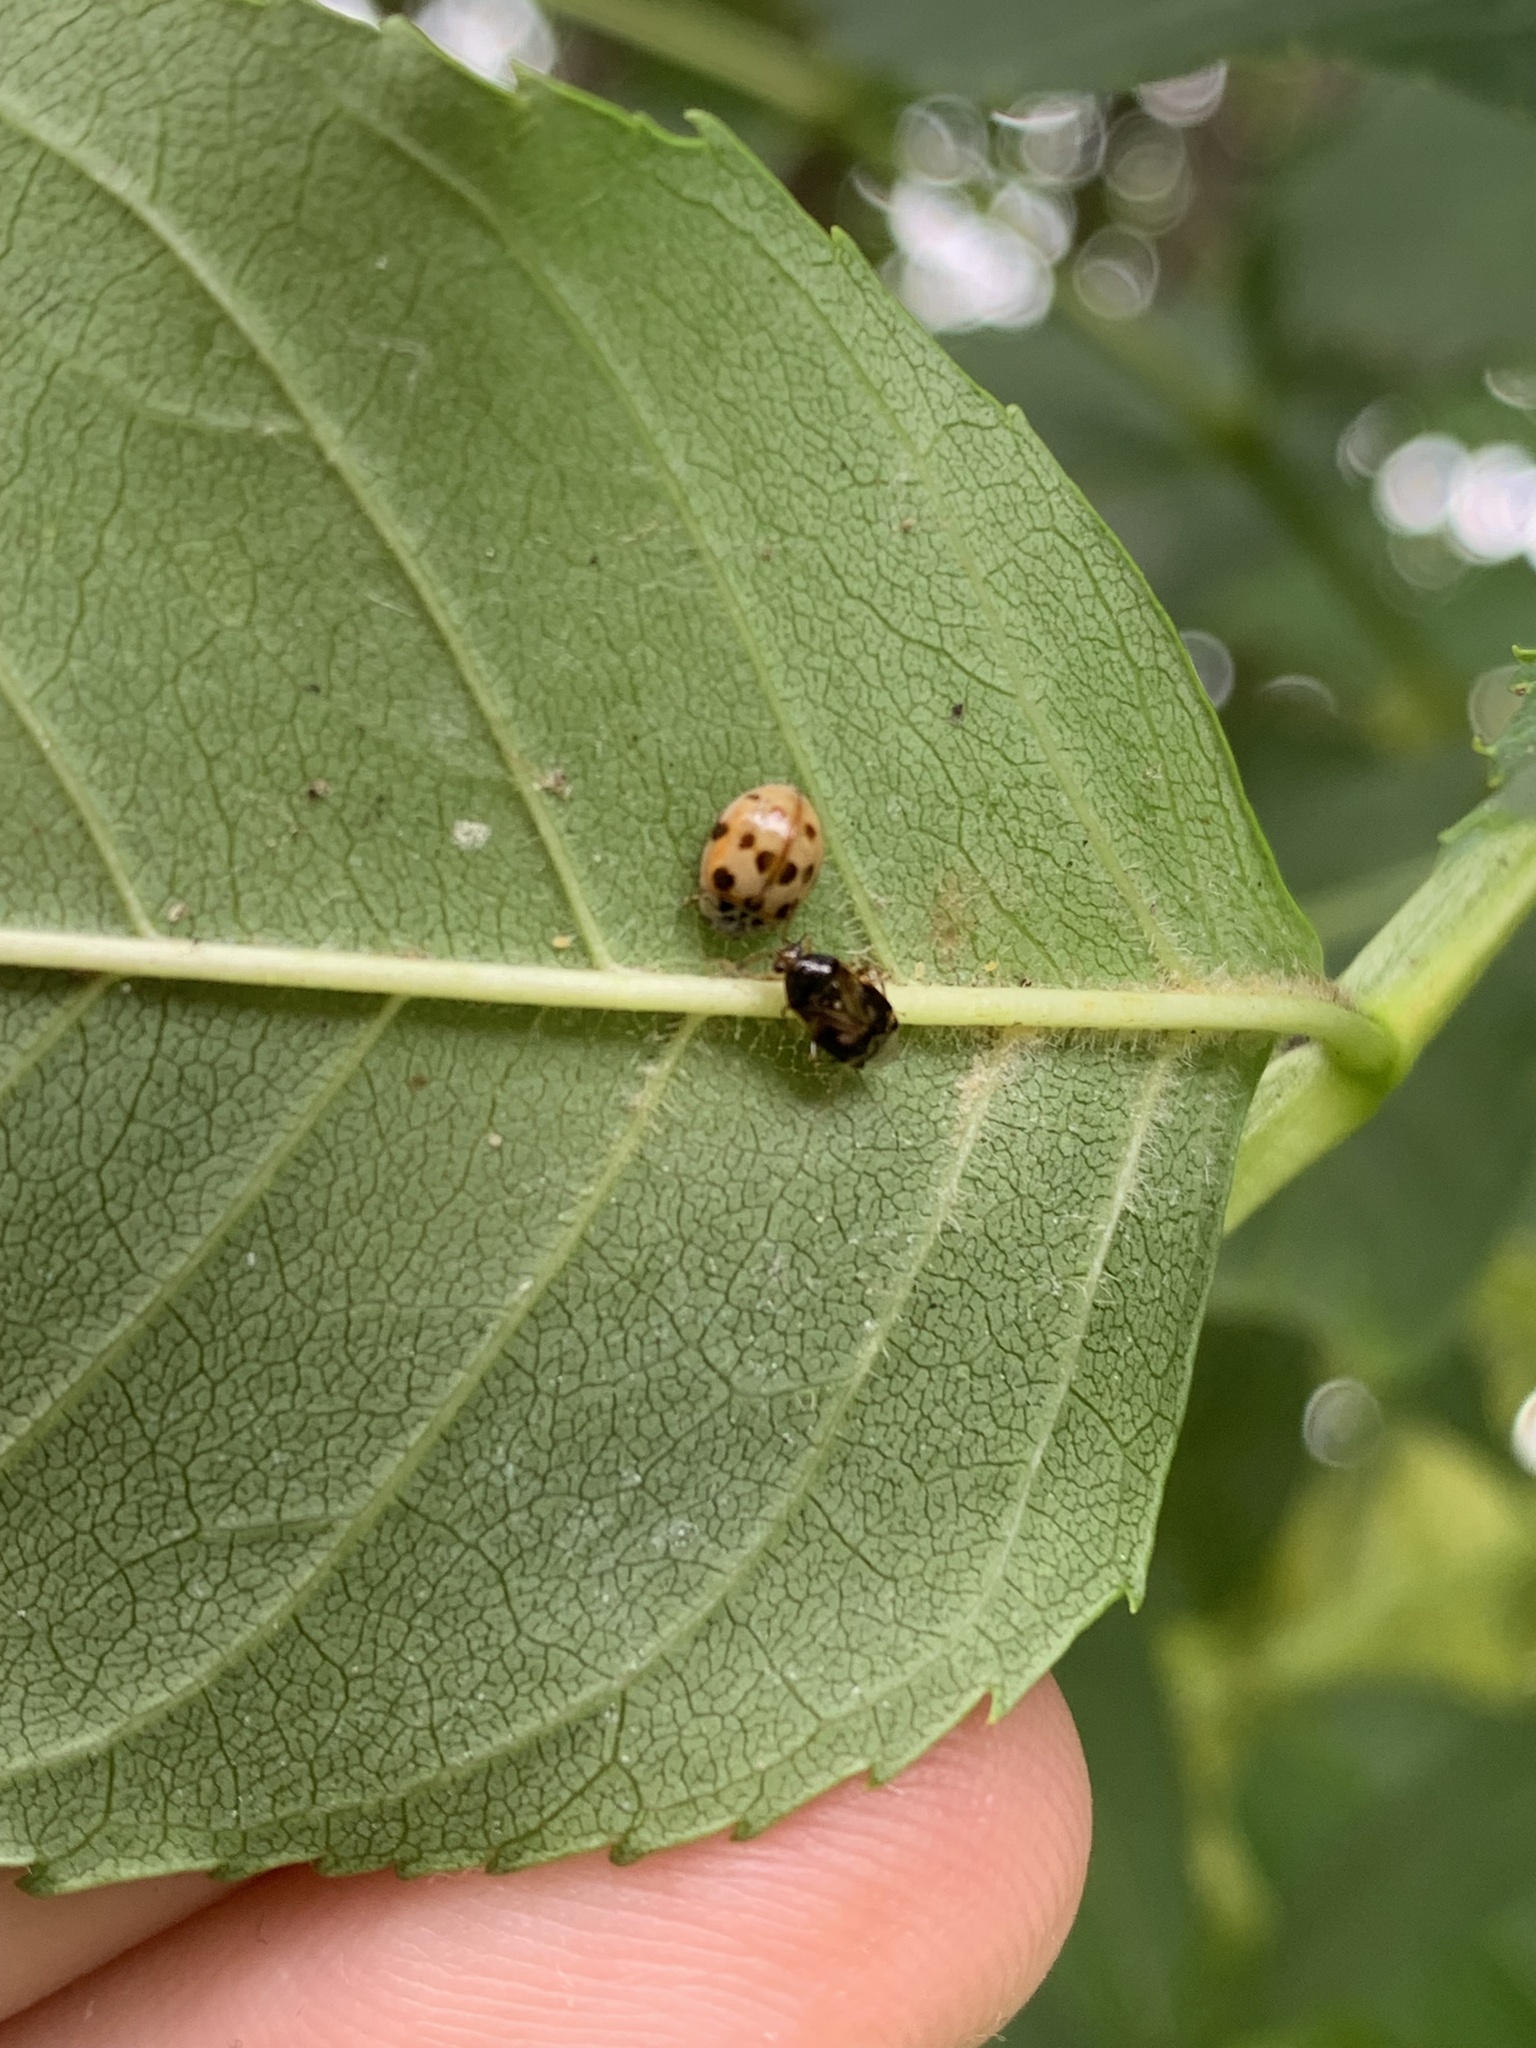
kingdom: Animalia
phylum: Arthropoda
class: Insecta
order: Coleoptera
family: Coccinellidae
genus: Adalia
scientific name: Adalia decempunctata
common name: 10-spot ladybird
